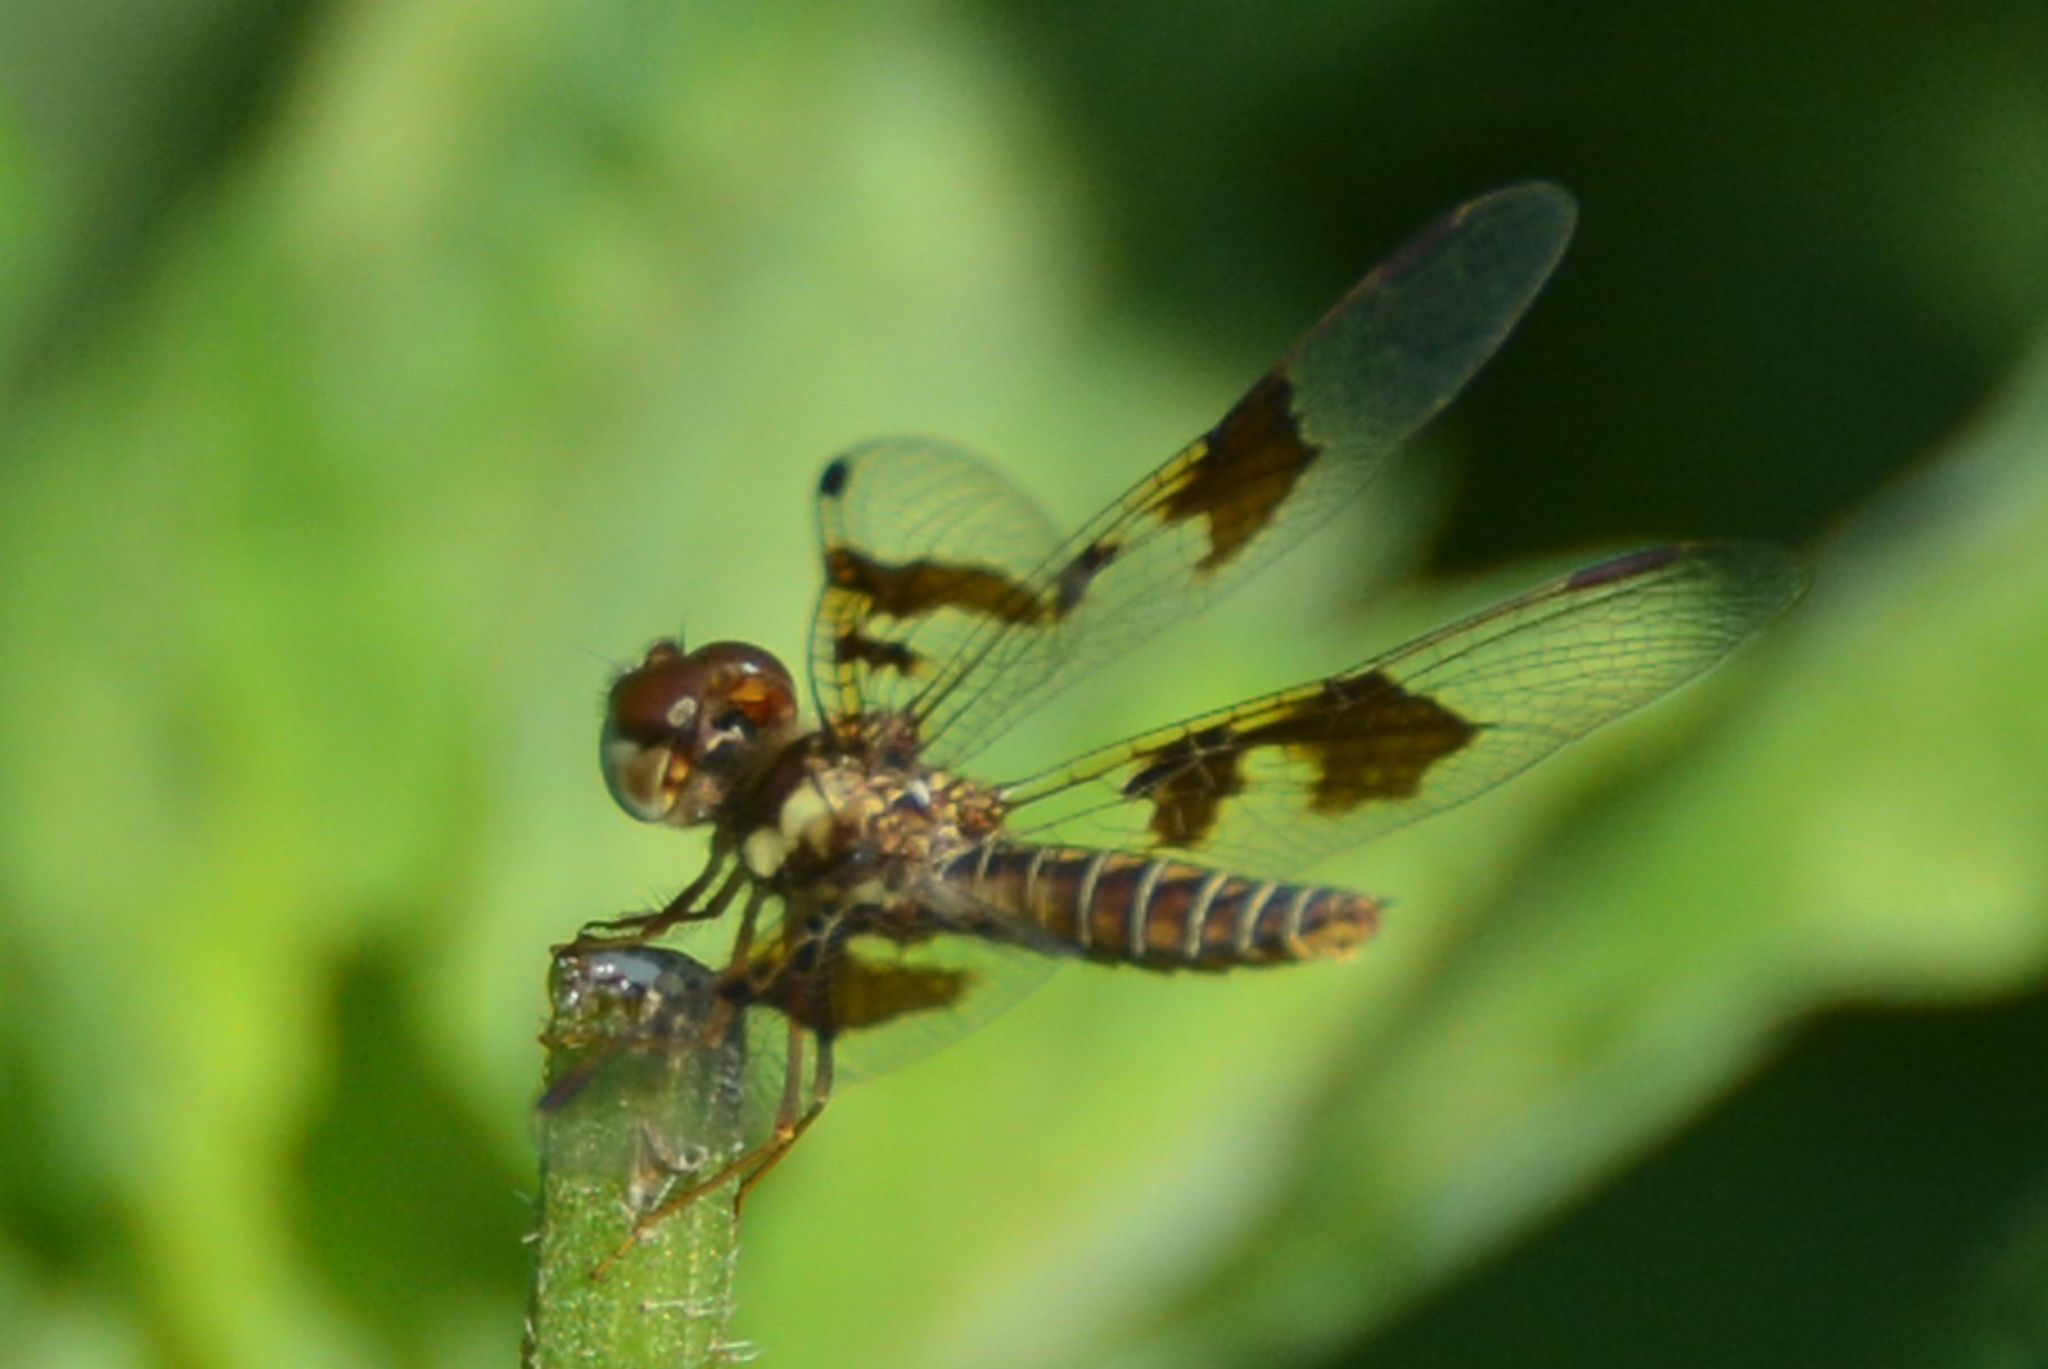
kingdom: Animalia
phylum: Arthropoda
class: Insecta
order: Odonata
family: Libellulidae
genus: Perithemis
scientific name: Perithemis tenera
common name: Eastern amberwing
